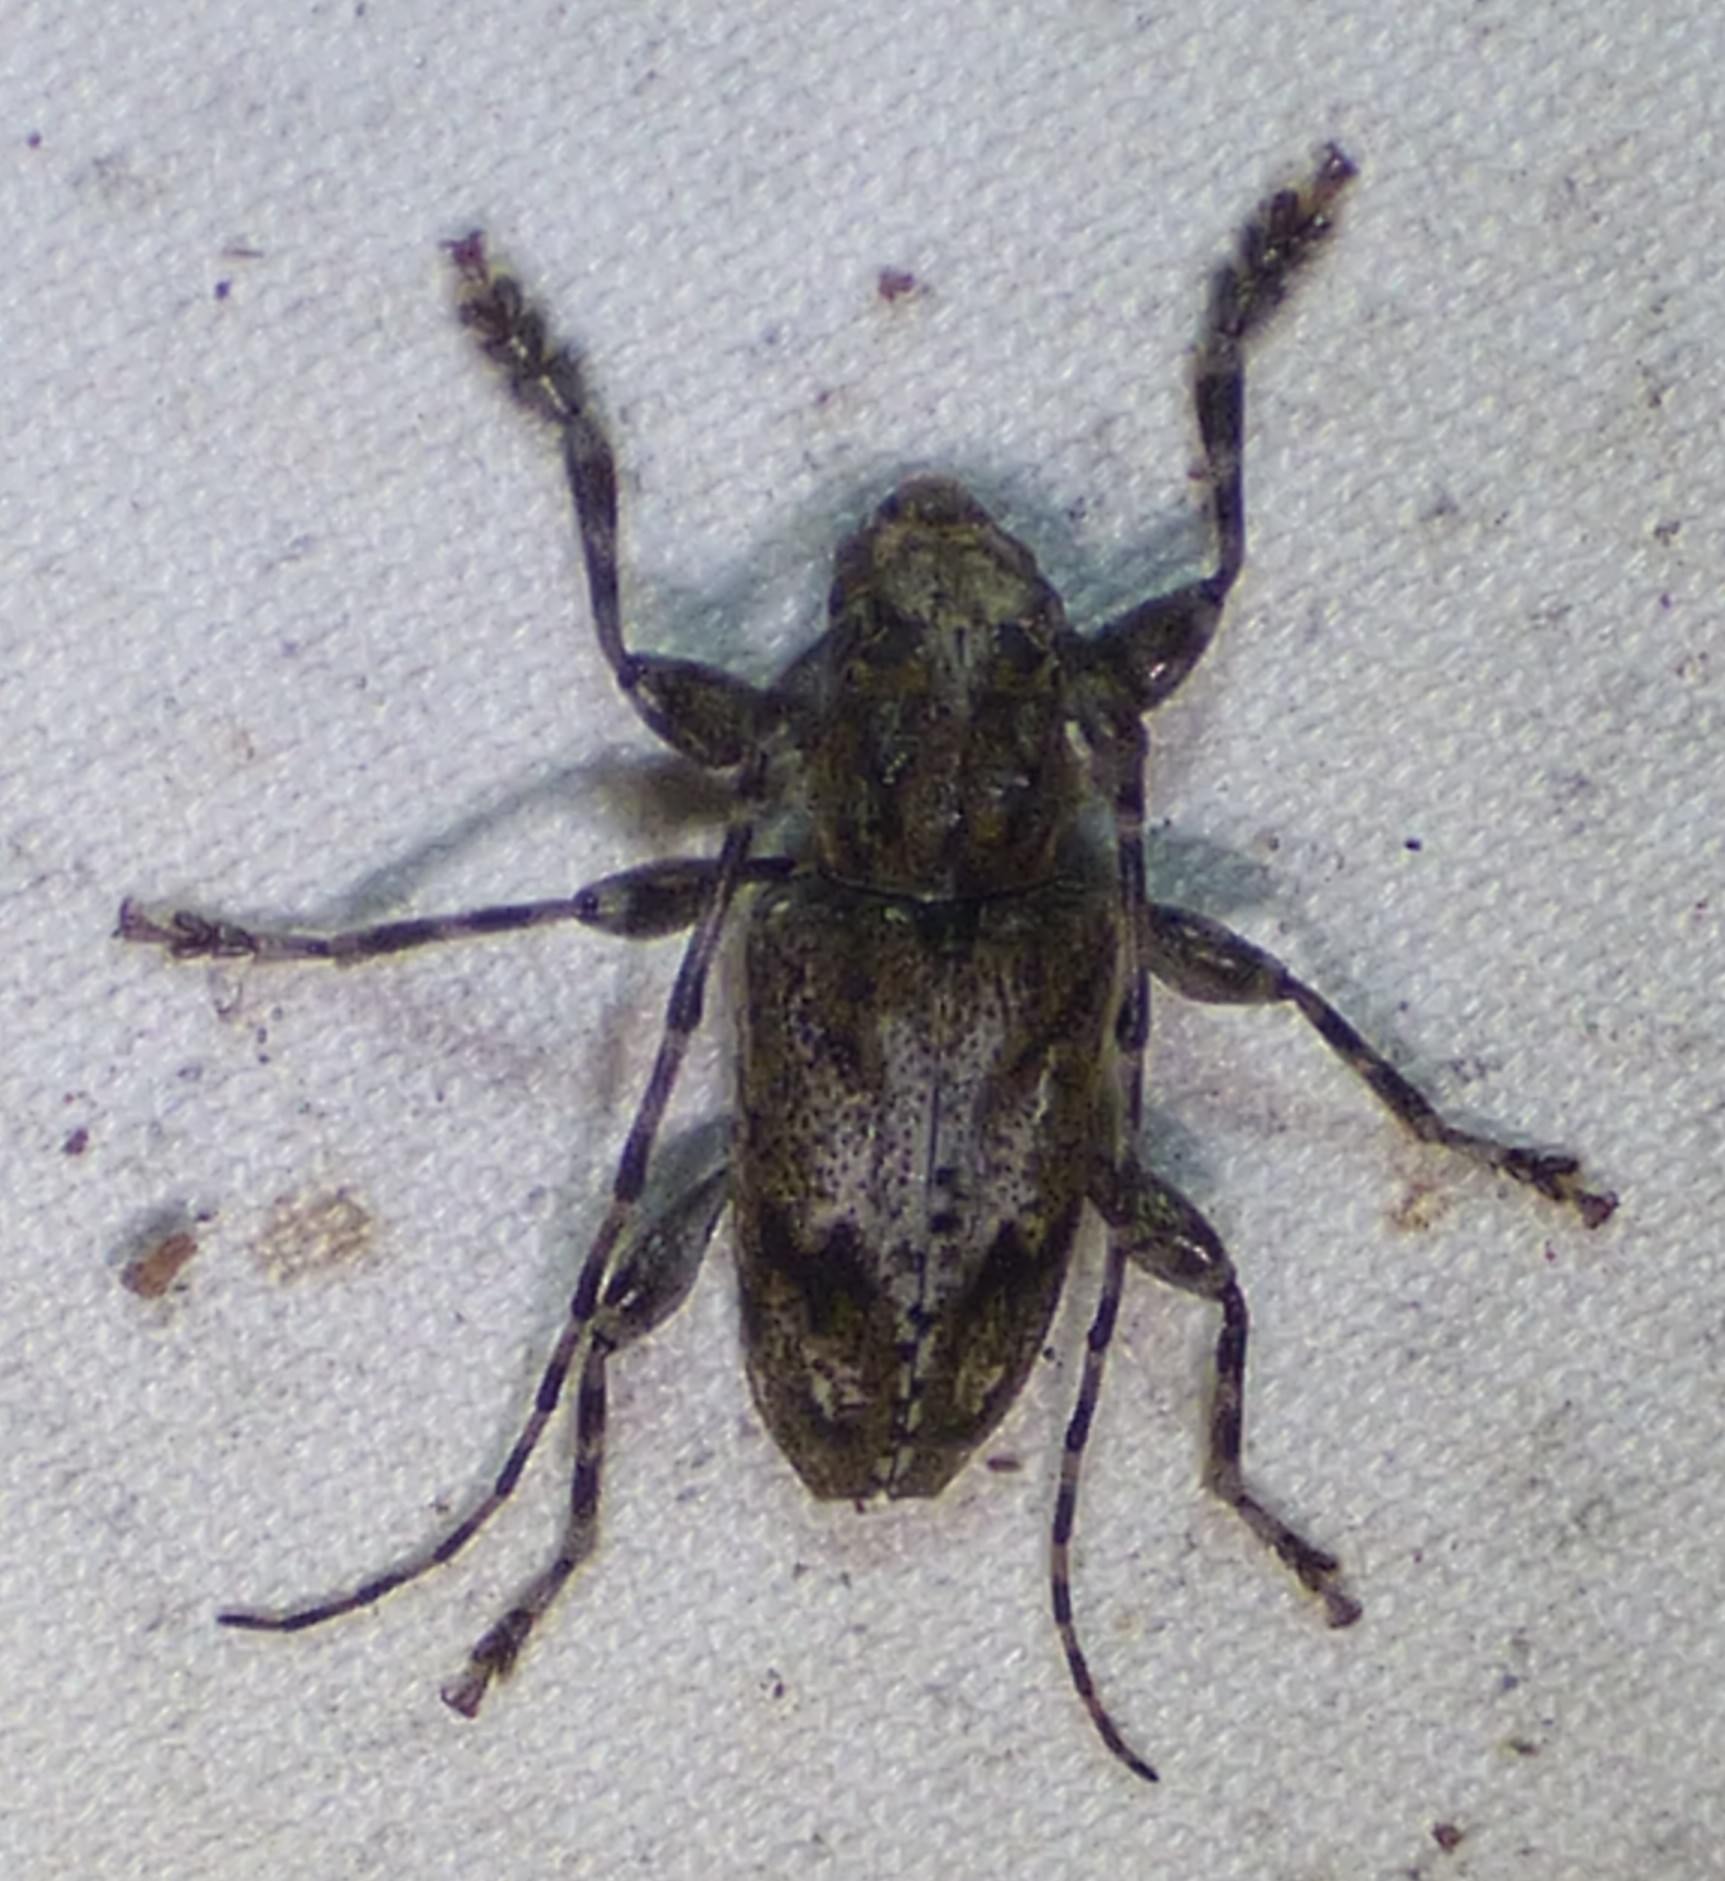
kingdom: Animalia
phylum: Arthropoda
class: Insecta
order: Coleoptera
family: Cerambycidae
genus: Aegomorphus
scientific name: Aegomorphus modestus
